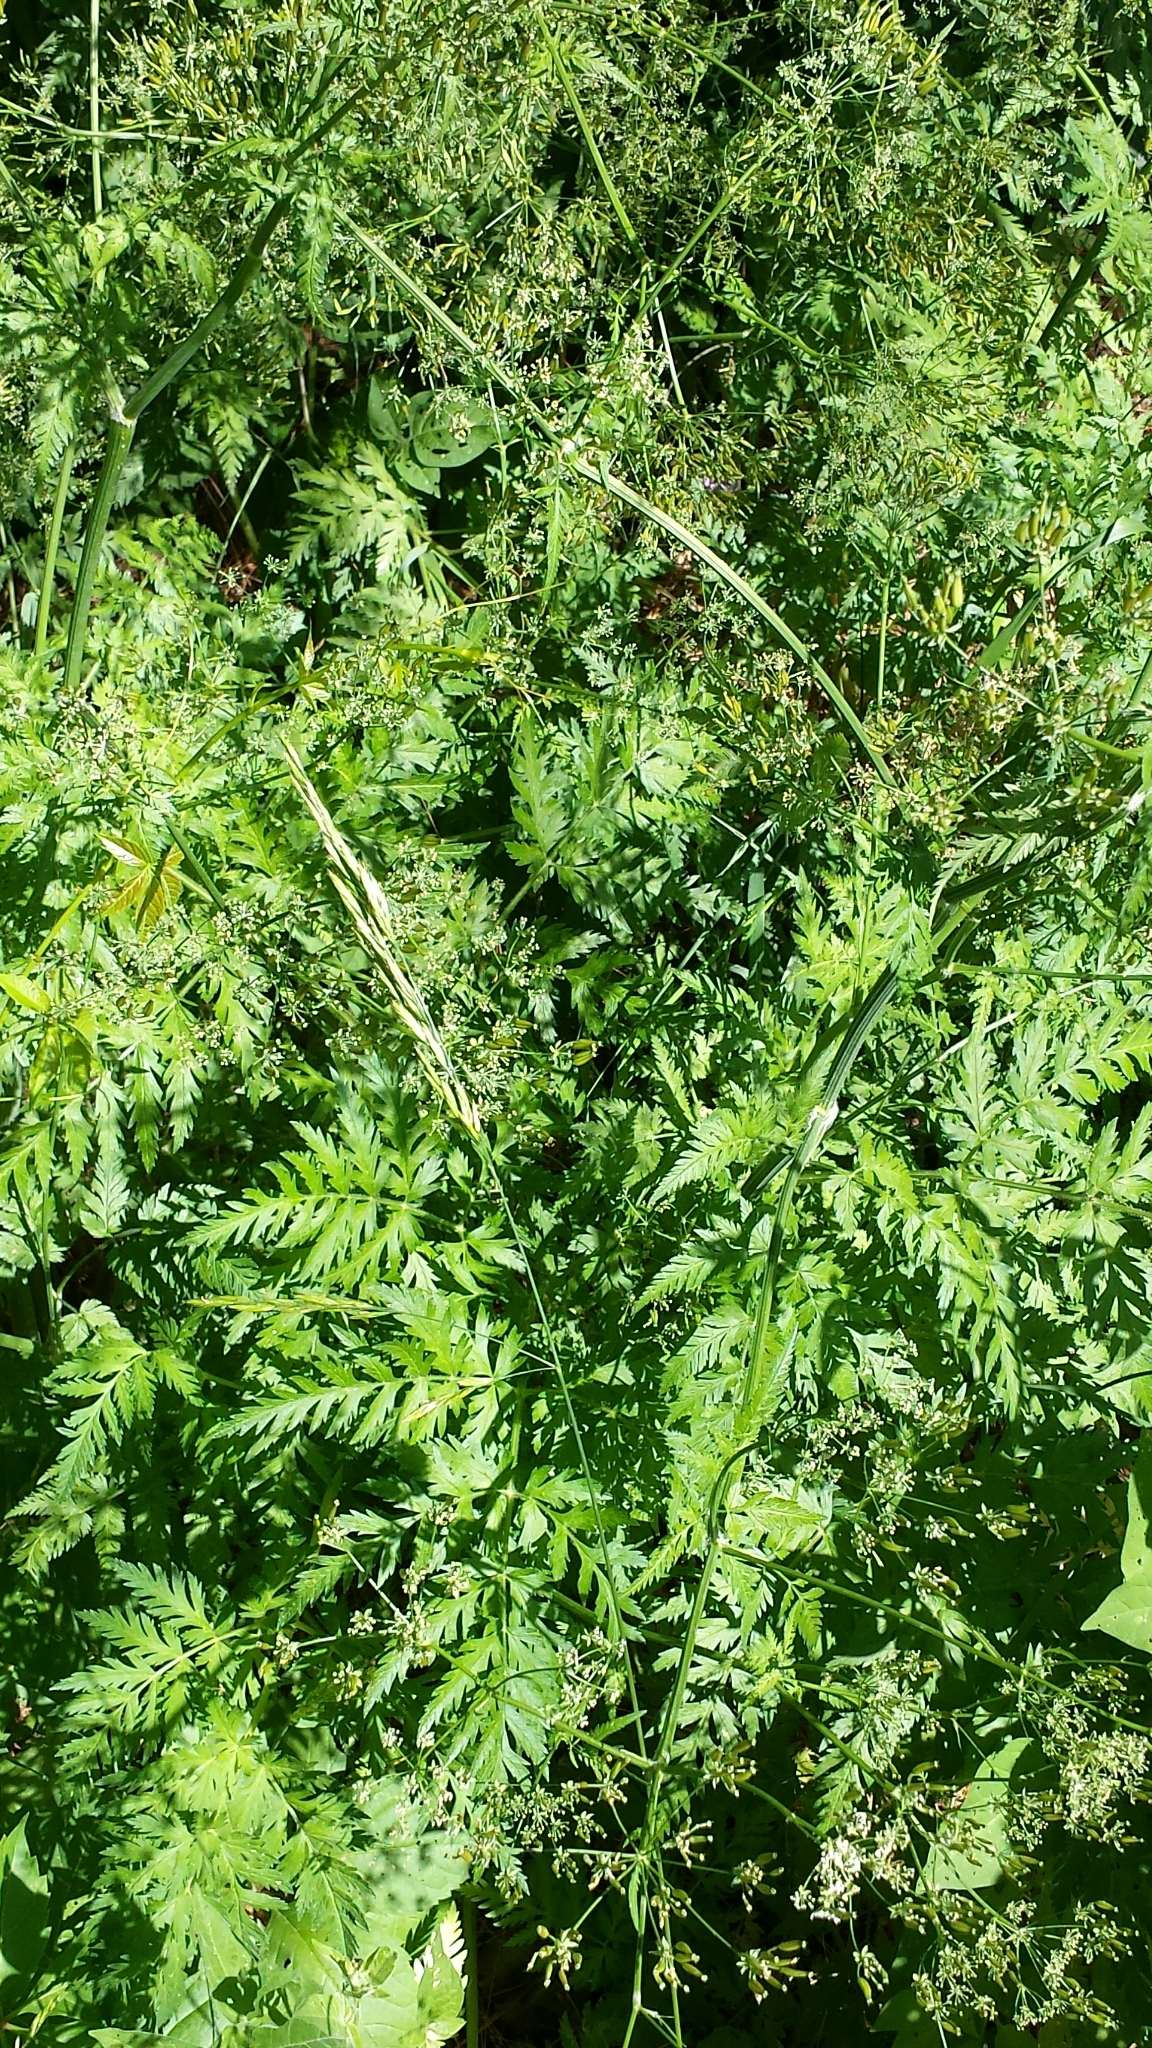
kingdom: Plantae
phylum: Tracheophyta
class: Magnoliopsida
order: Apiales
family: Apiaceae
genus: Anthriscus
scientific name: Anthriscus sylvestris
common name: Cow parsley
